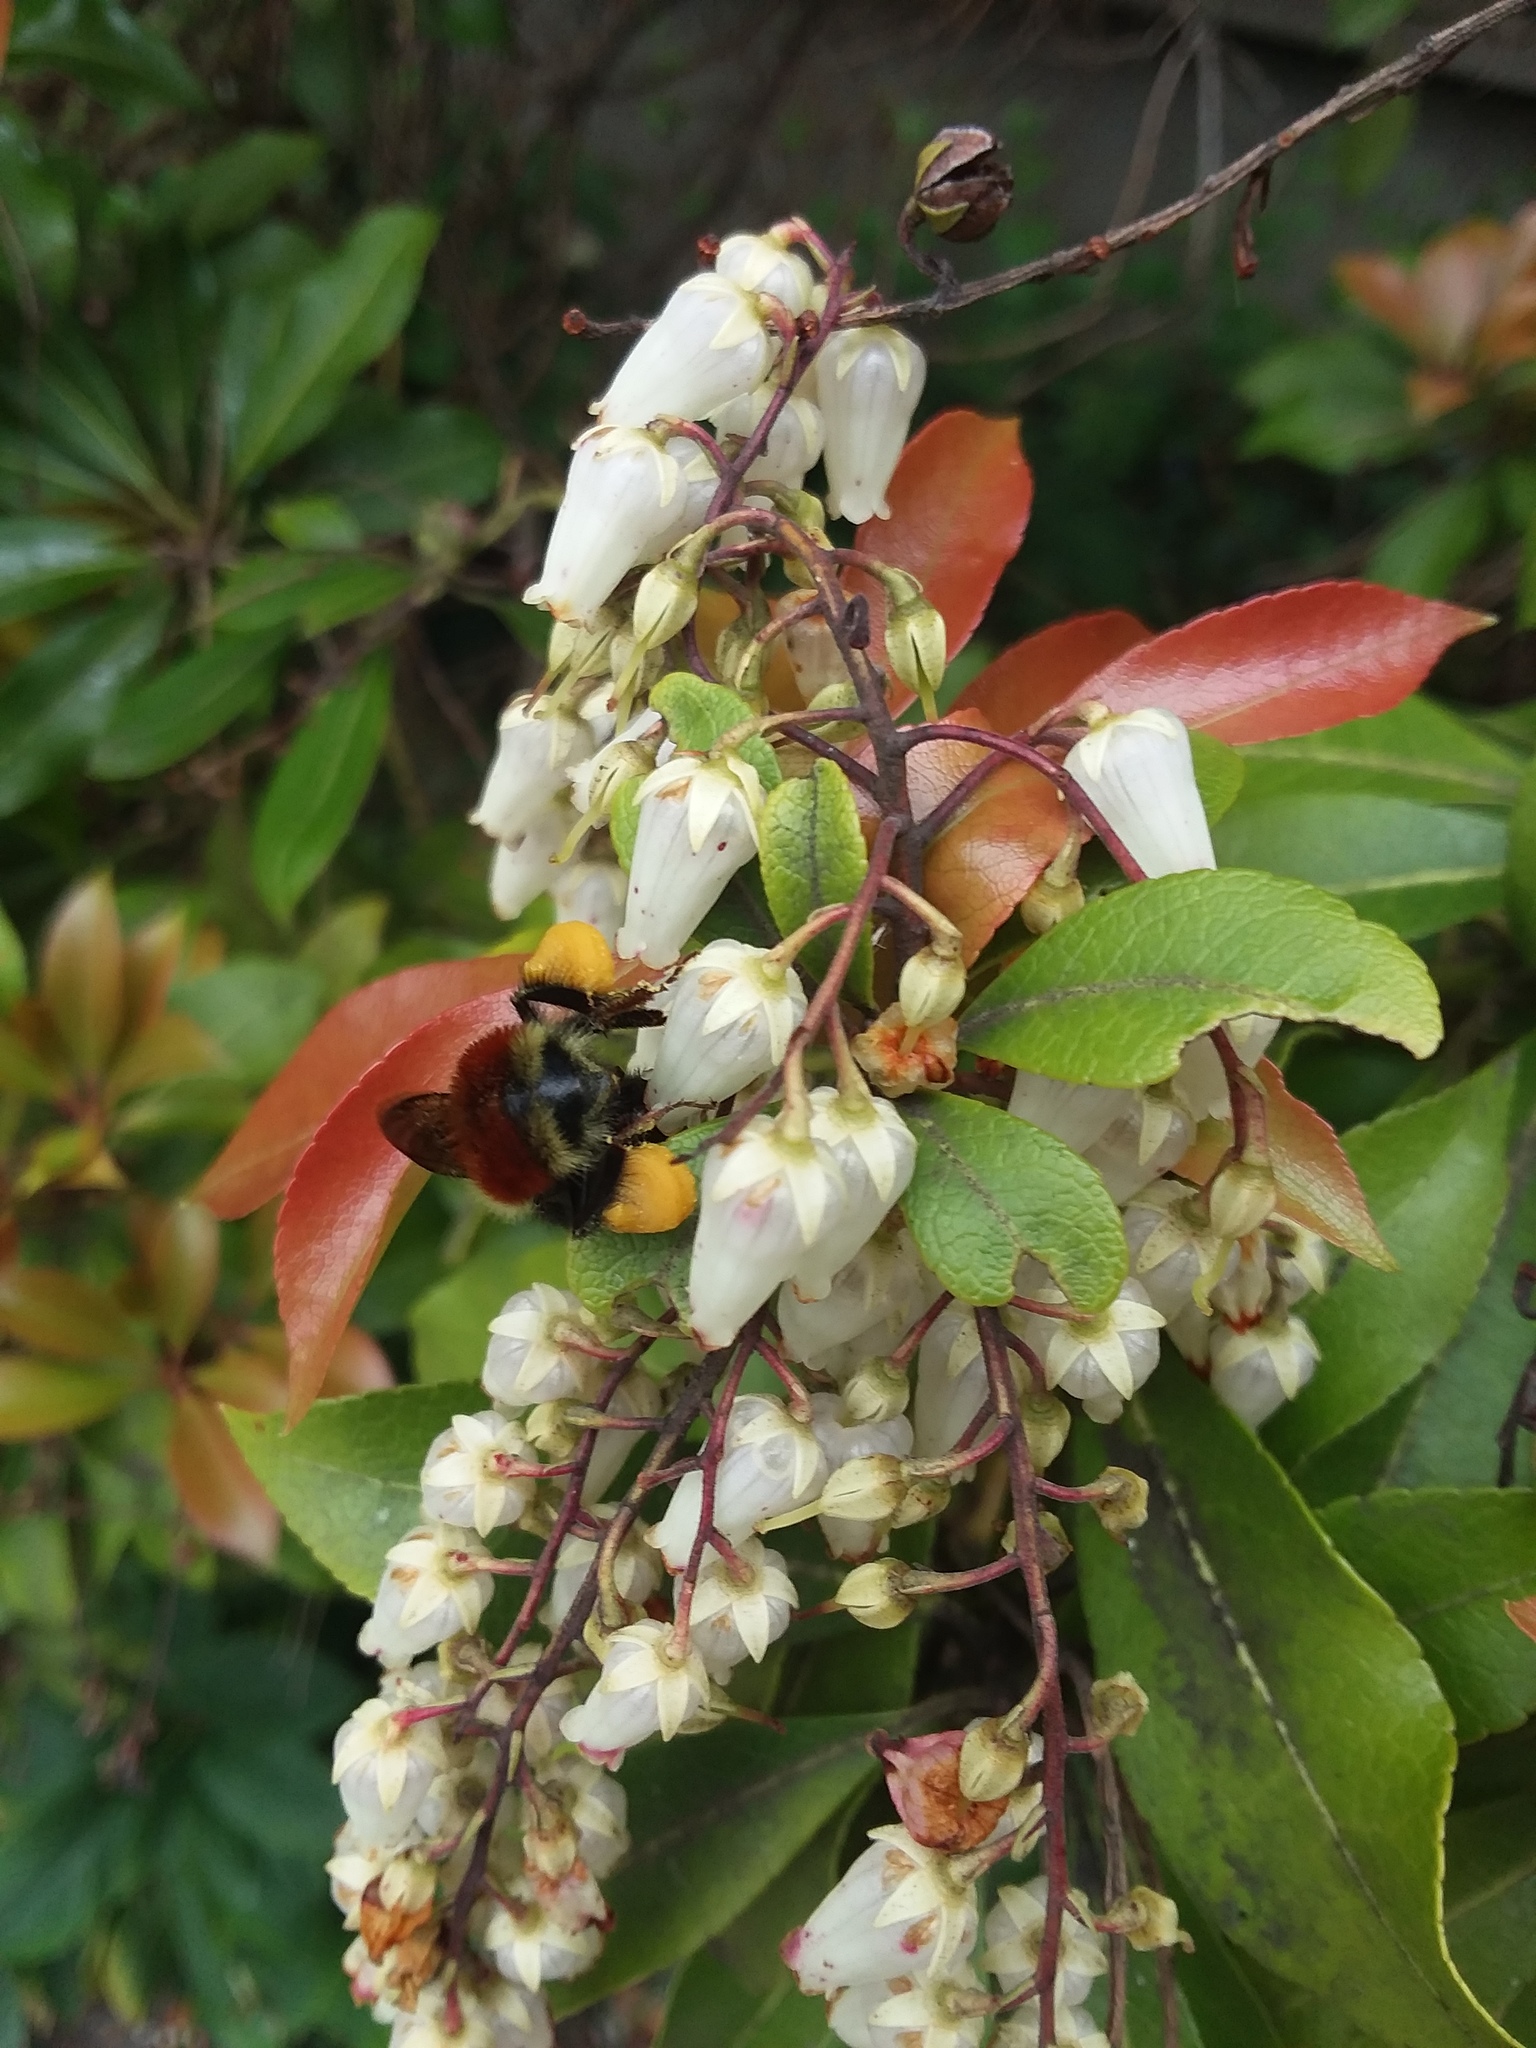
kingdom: Animalia
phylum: Arthropoda
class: Insecta
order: Hymenoptera
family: Apidae
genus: Bombus
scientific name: Bombus melanopygus
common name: Black tail bumble bee
